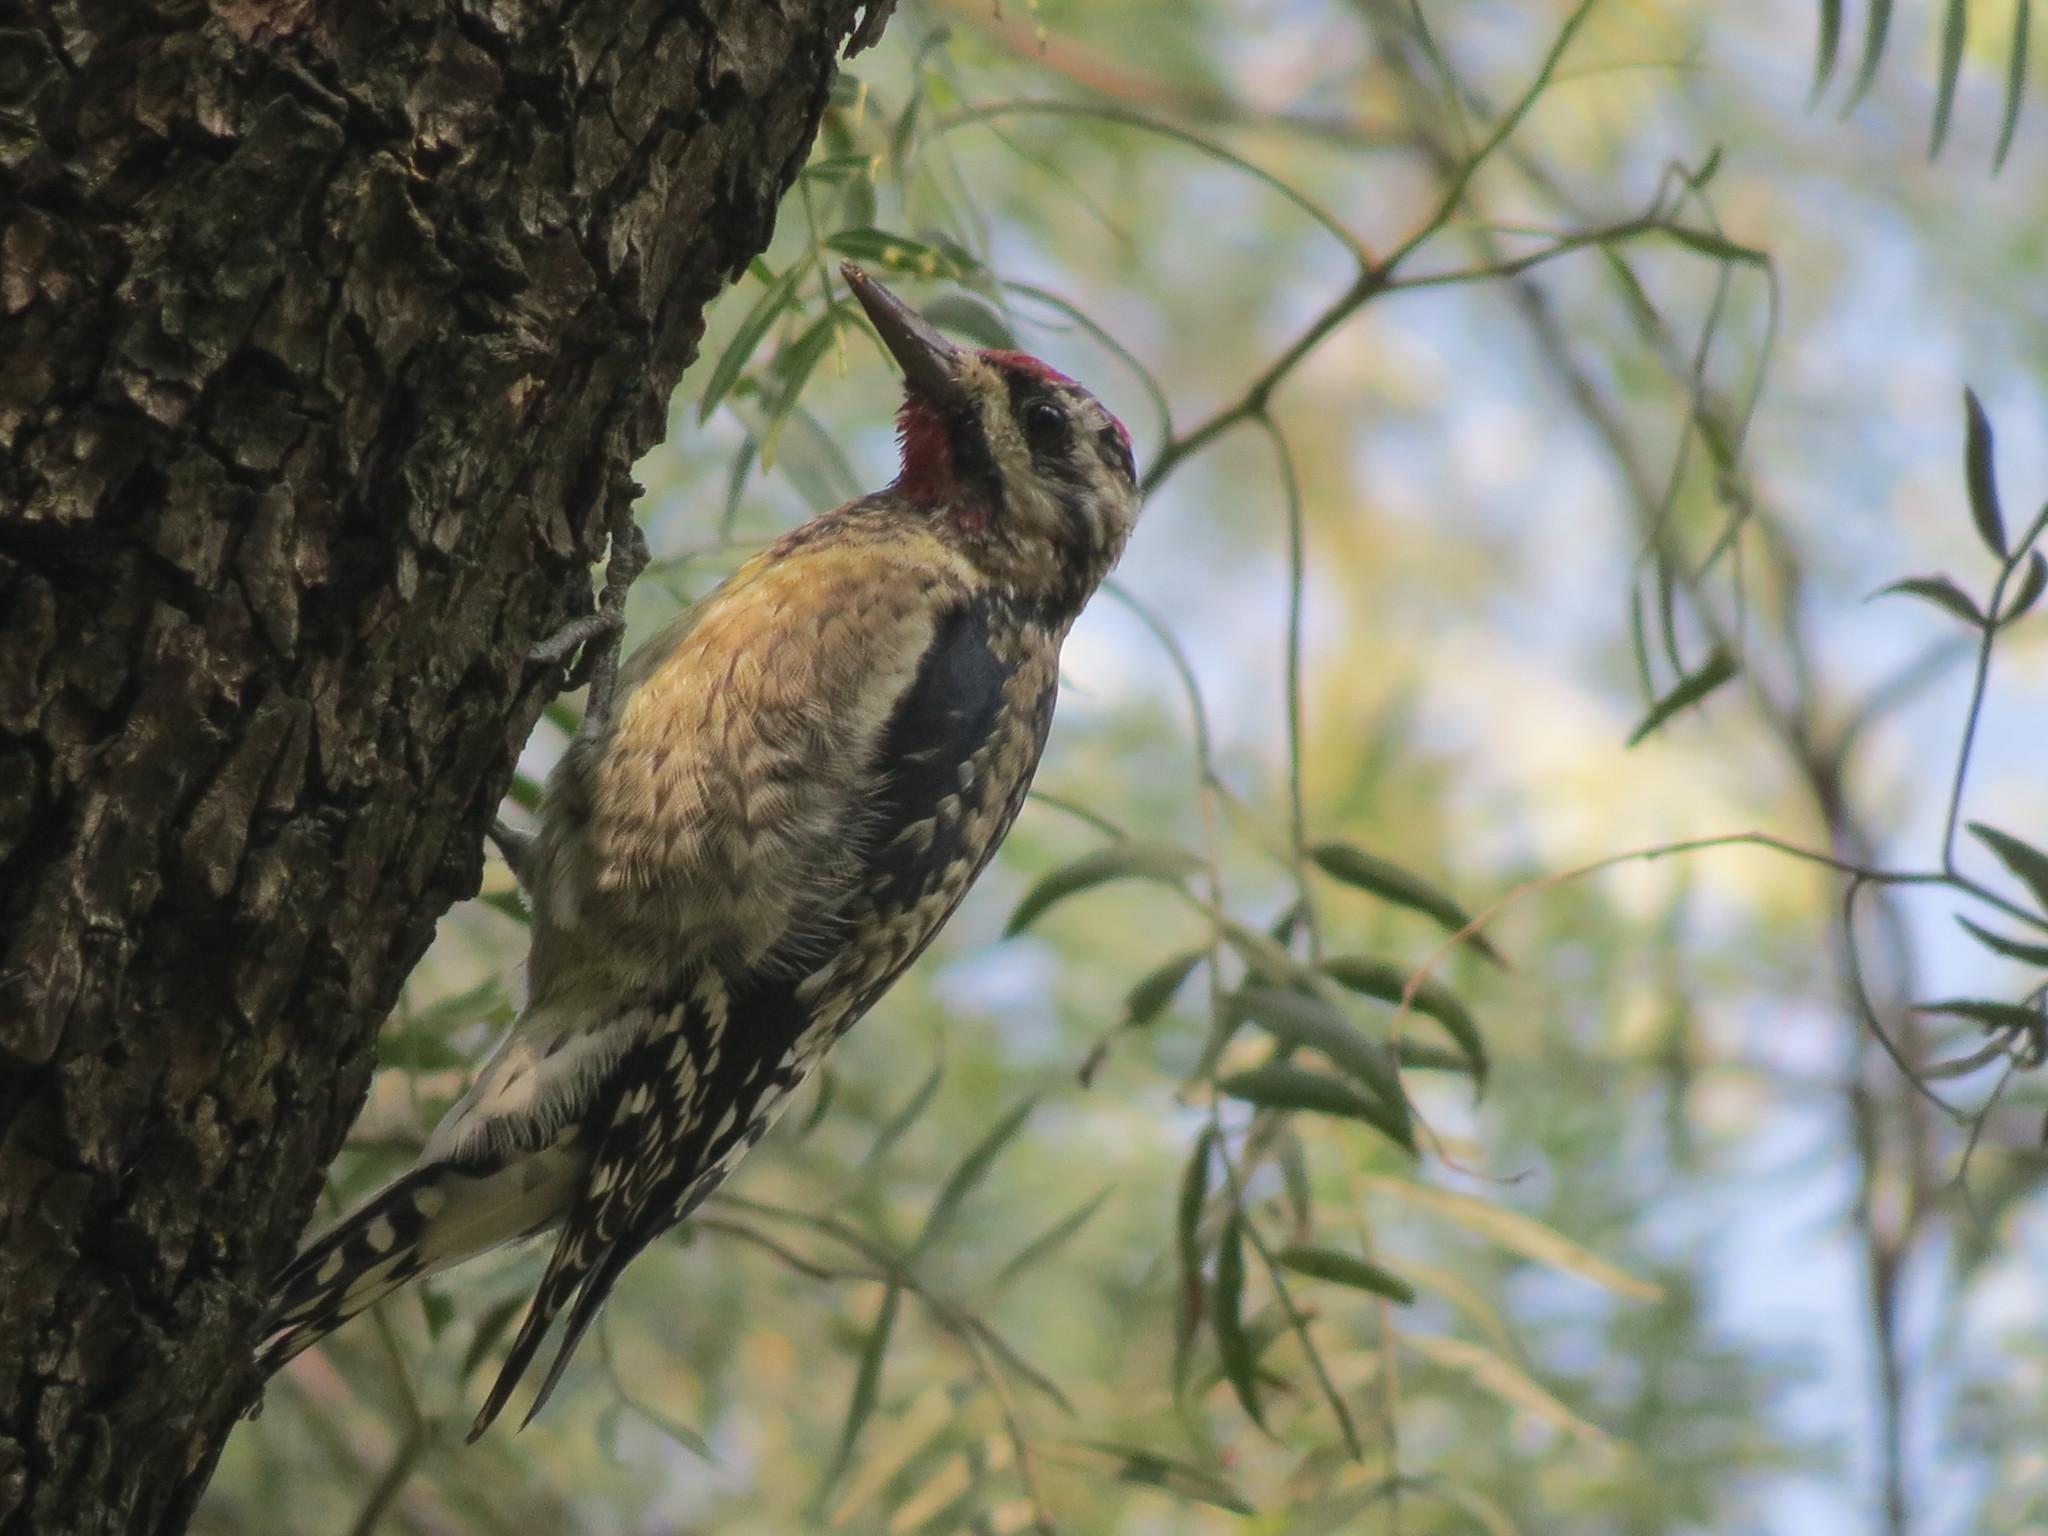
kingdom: Animalia
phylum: Chordata
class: Aves
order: Piciformes
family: Picidae
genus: Sphyrapicus
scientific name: Sphyrapicus varius
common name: Yellow-bellied sapsucker
